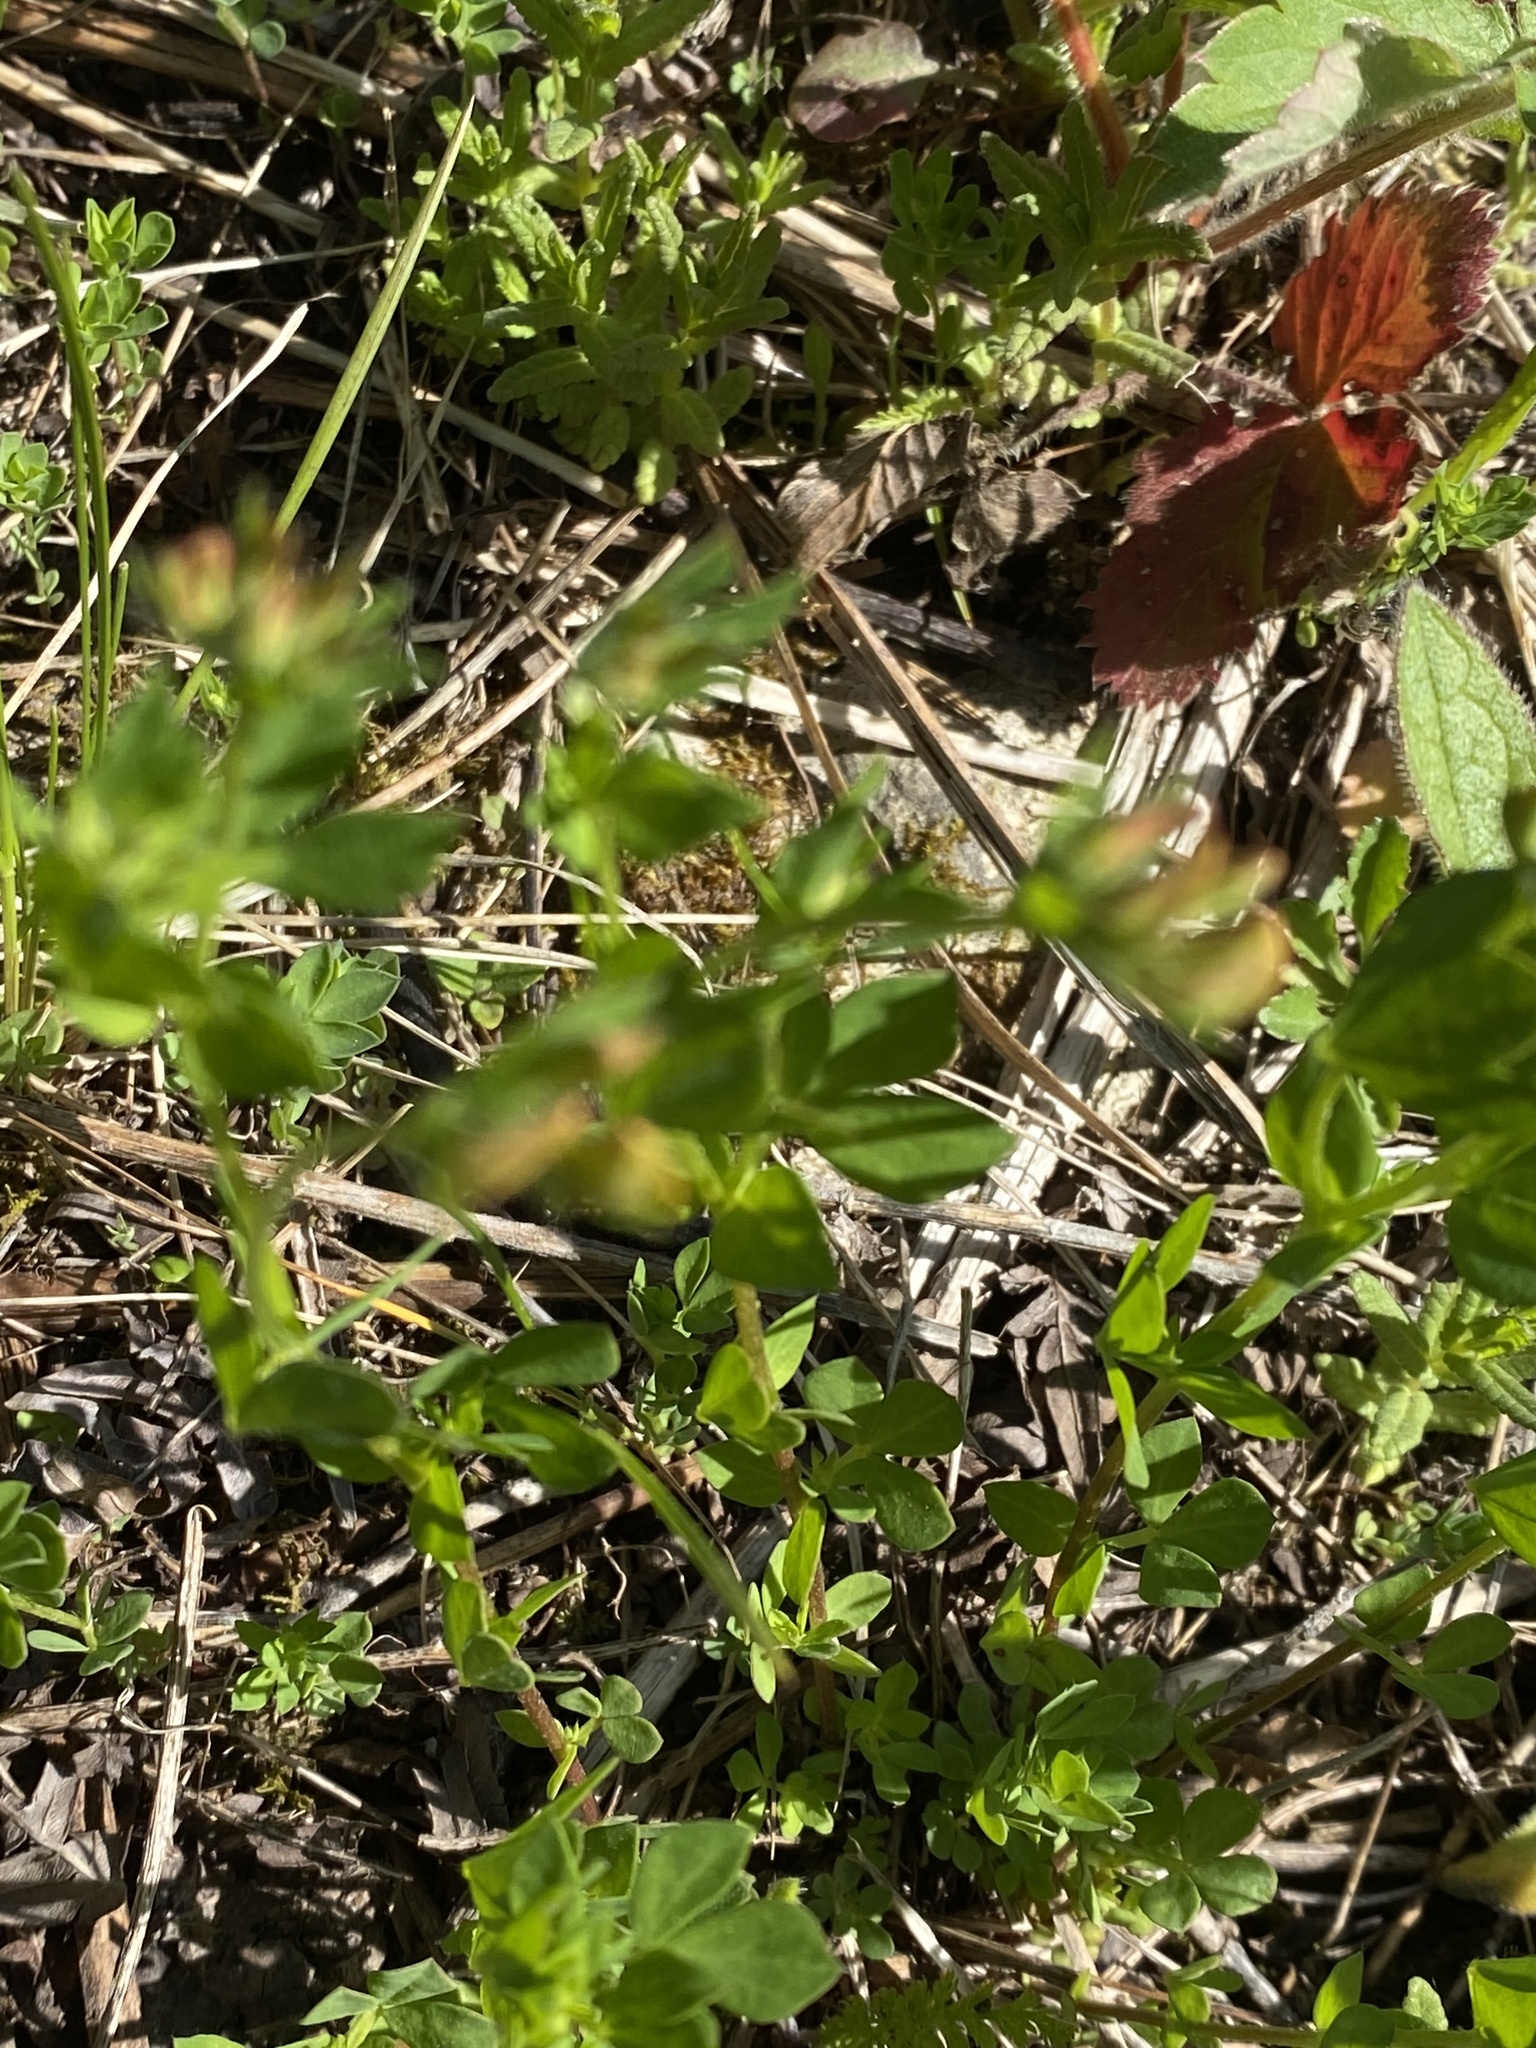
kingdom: Plantae
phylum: Tracheophyta
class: Magnoliopsida
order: Fabales
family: Fabaceae
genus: Lotus
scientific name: Lotus corniculatus
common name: Common bird's-foot-trefoil
